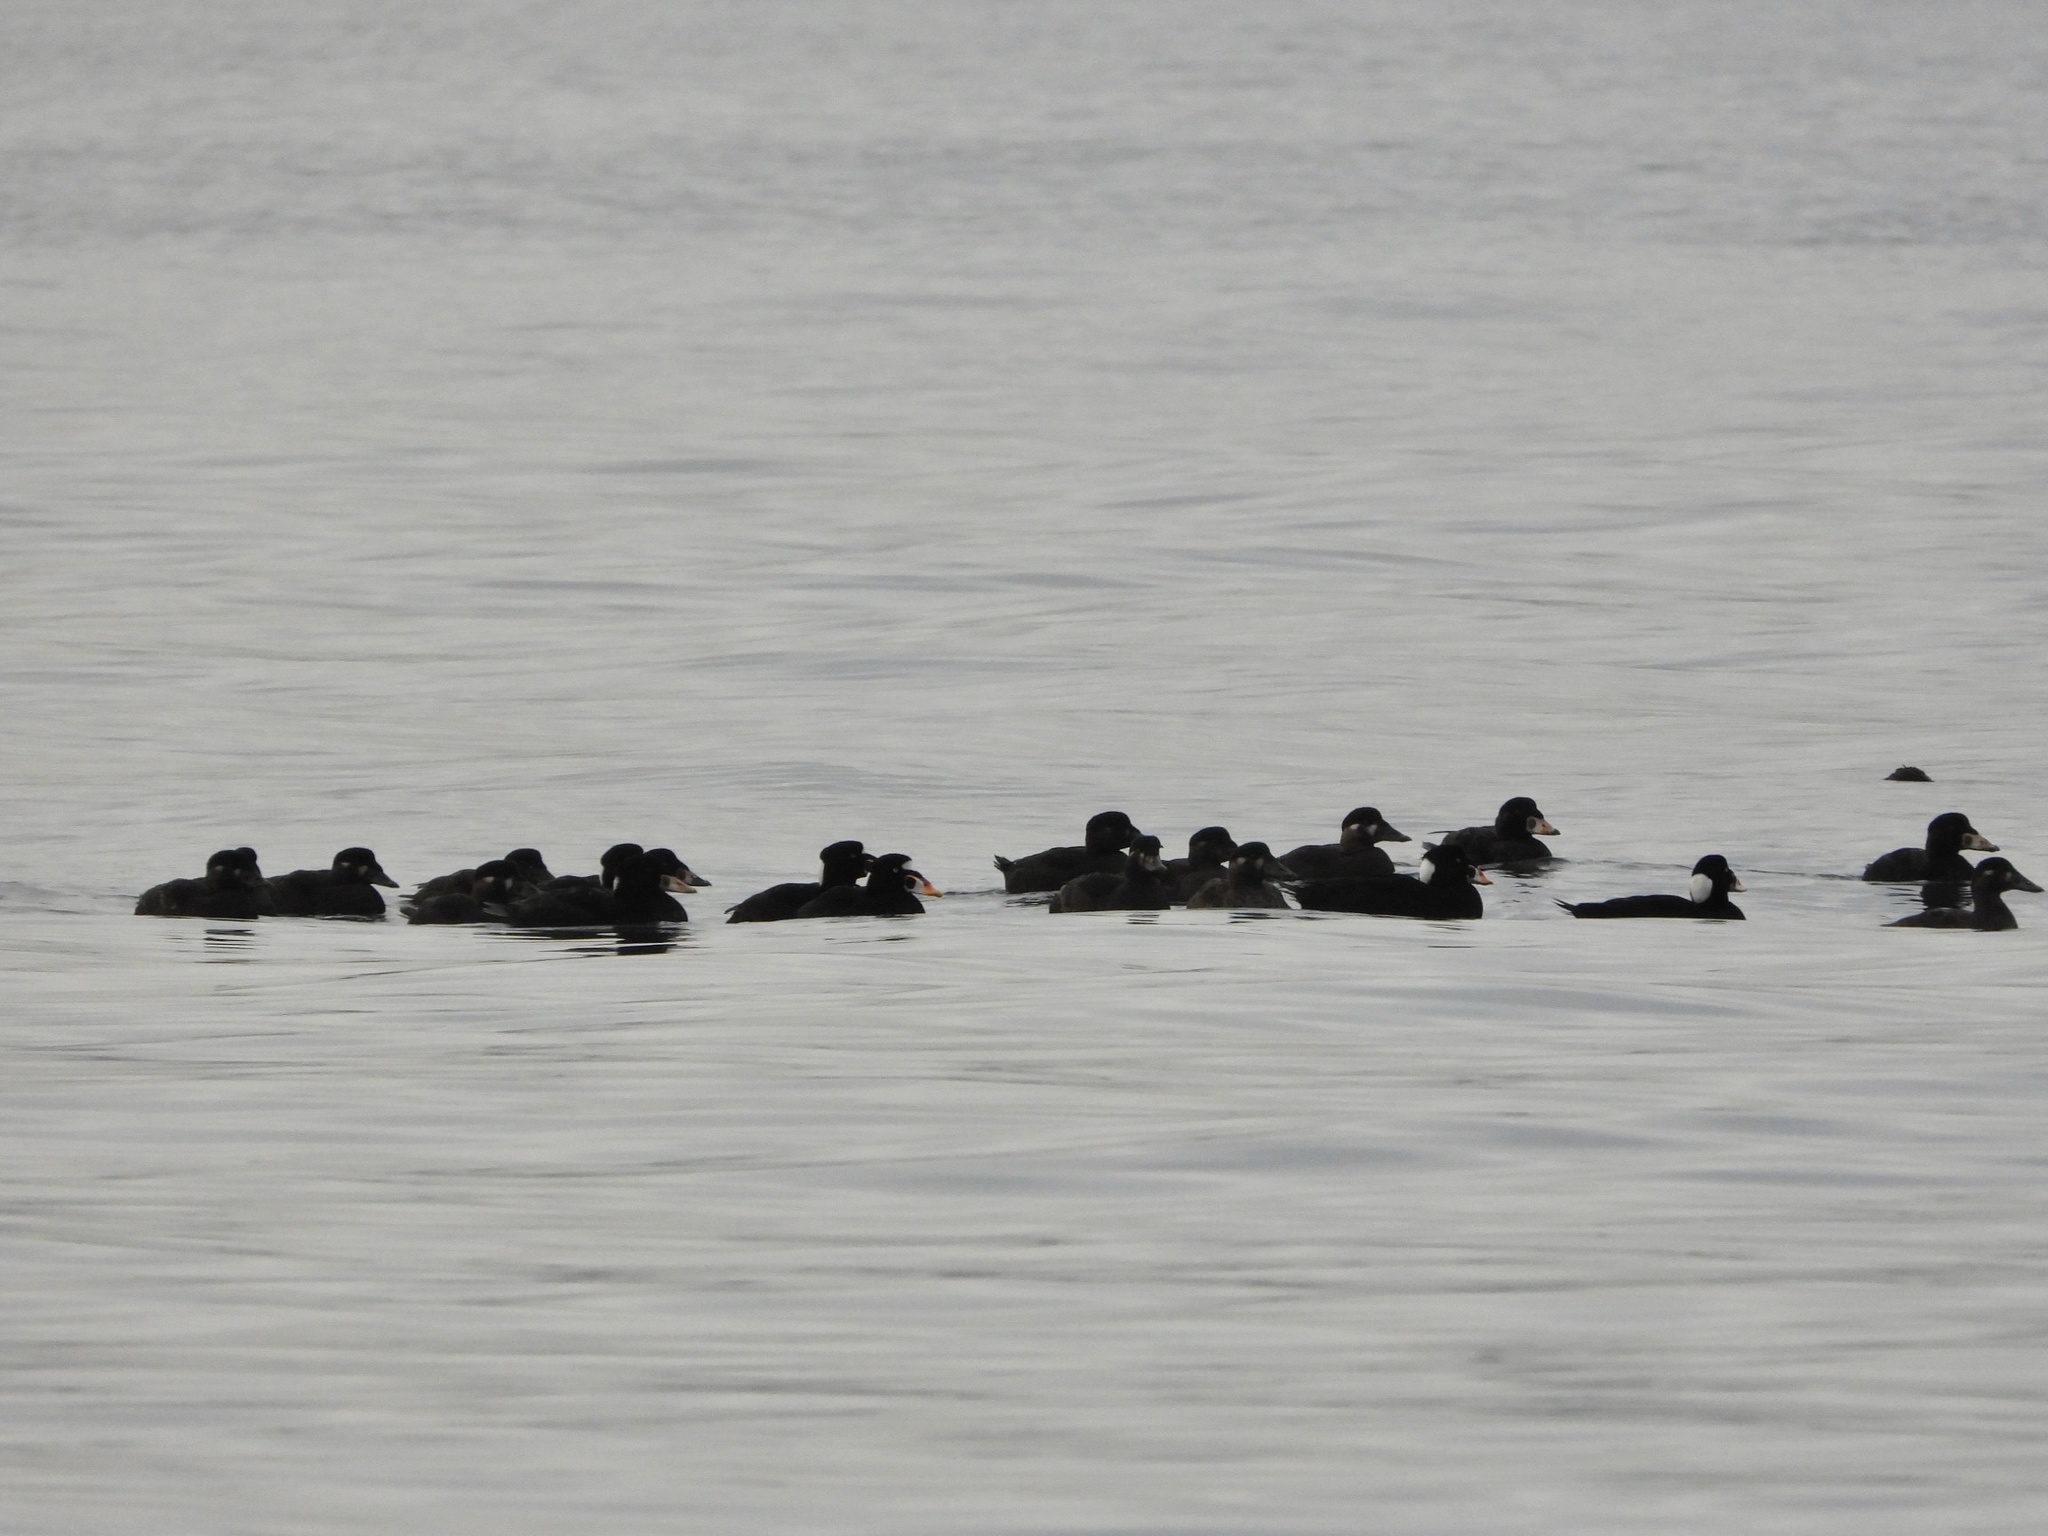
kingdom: Animalia
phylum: Chordata
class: Aves
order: Anseriformes
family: Anatidae
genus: Melanitta
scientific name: Melanitta perspicillata
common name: Surf scoter
